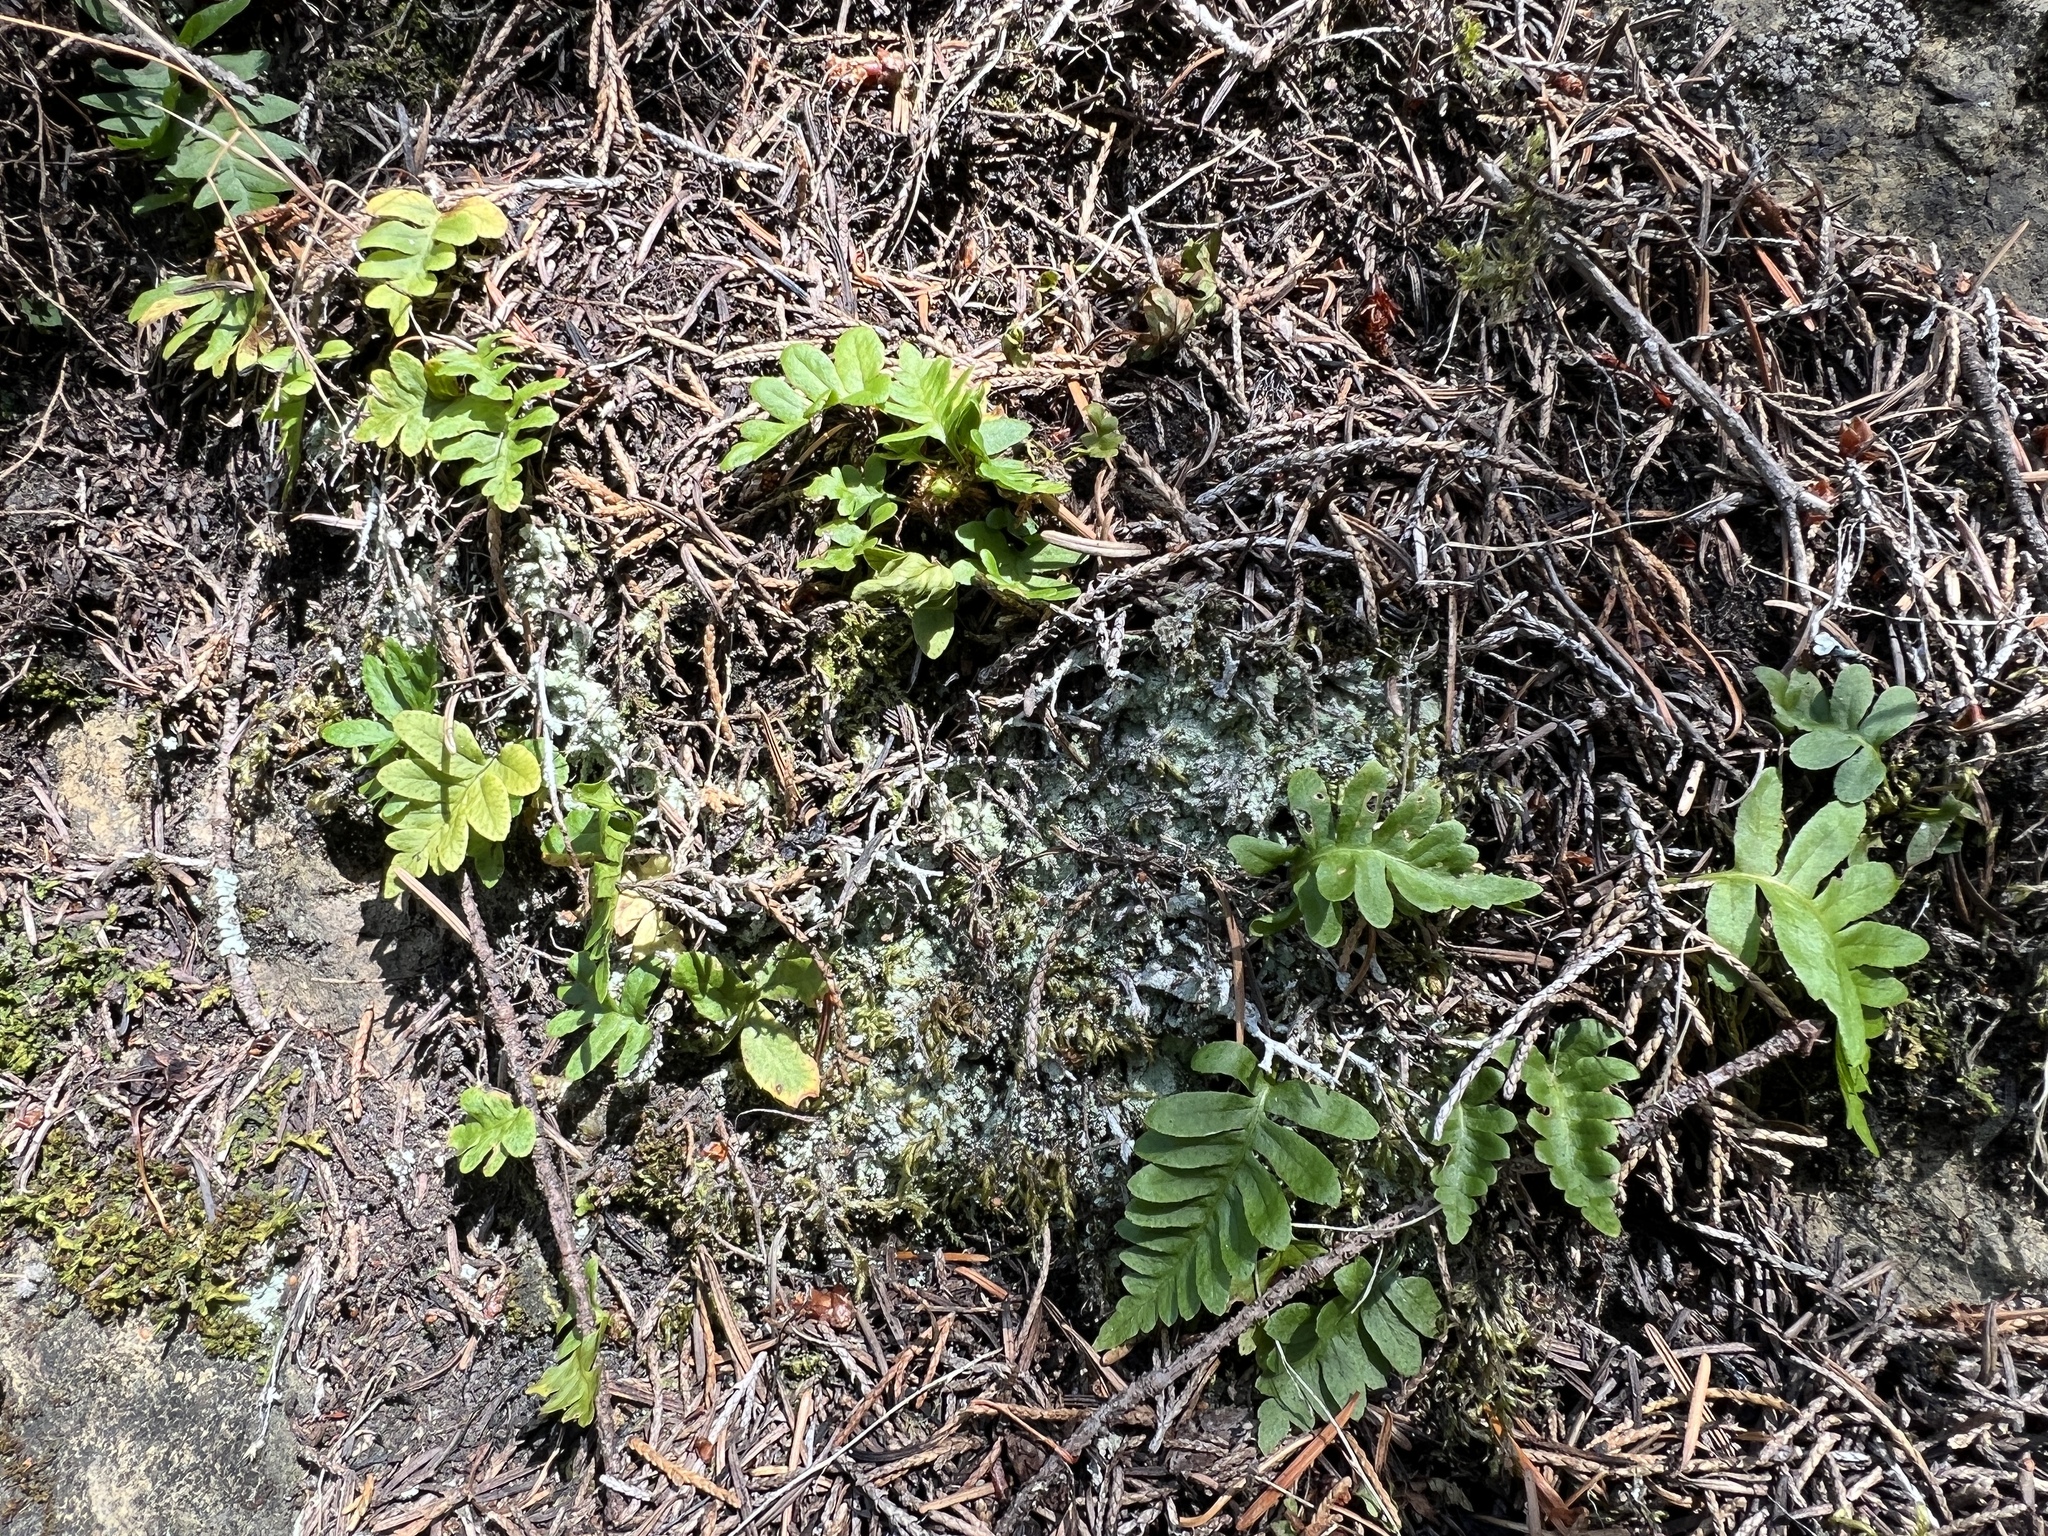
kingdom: Plantae
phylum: Tracheophyta
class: Polypodiopsida
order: Polypodiales
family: Polypodiaceae
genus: Polypodium
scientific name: Polypodium glycyrrhiza
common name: Licorice fern
